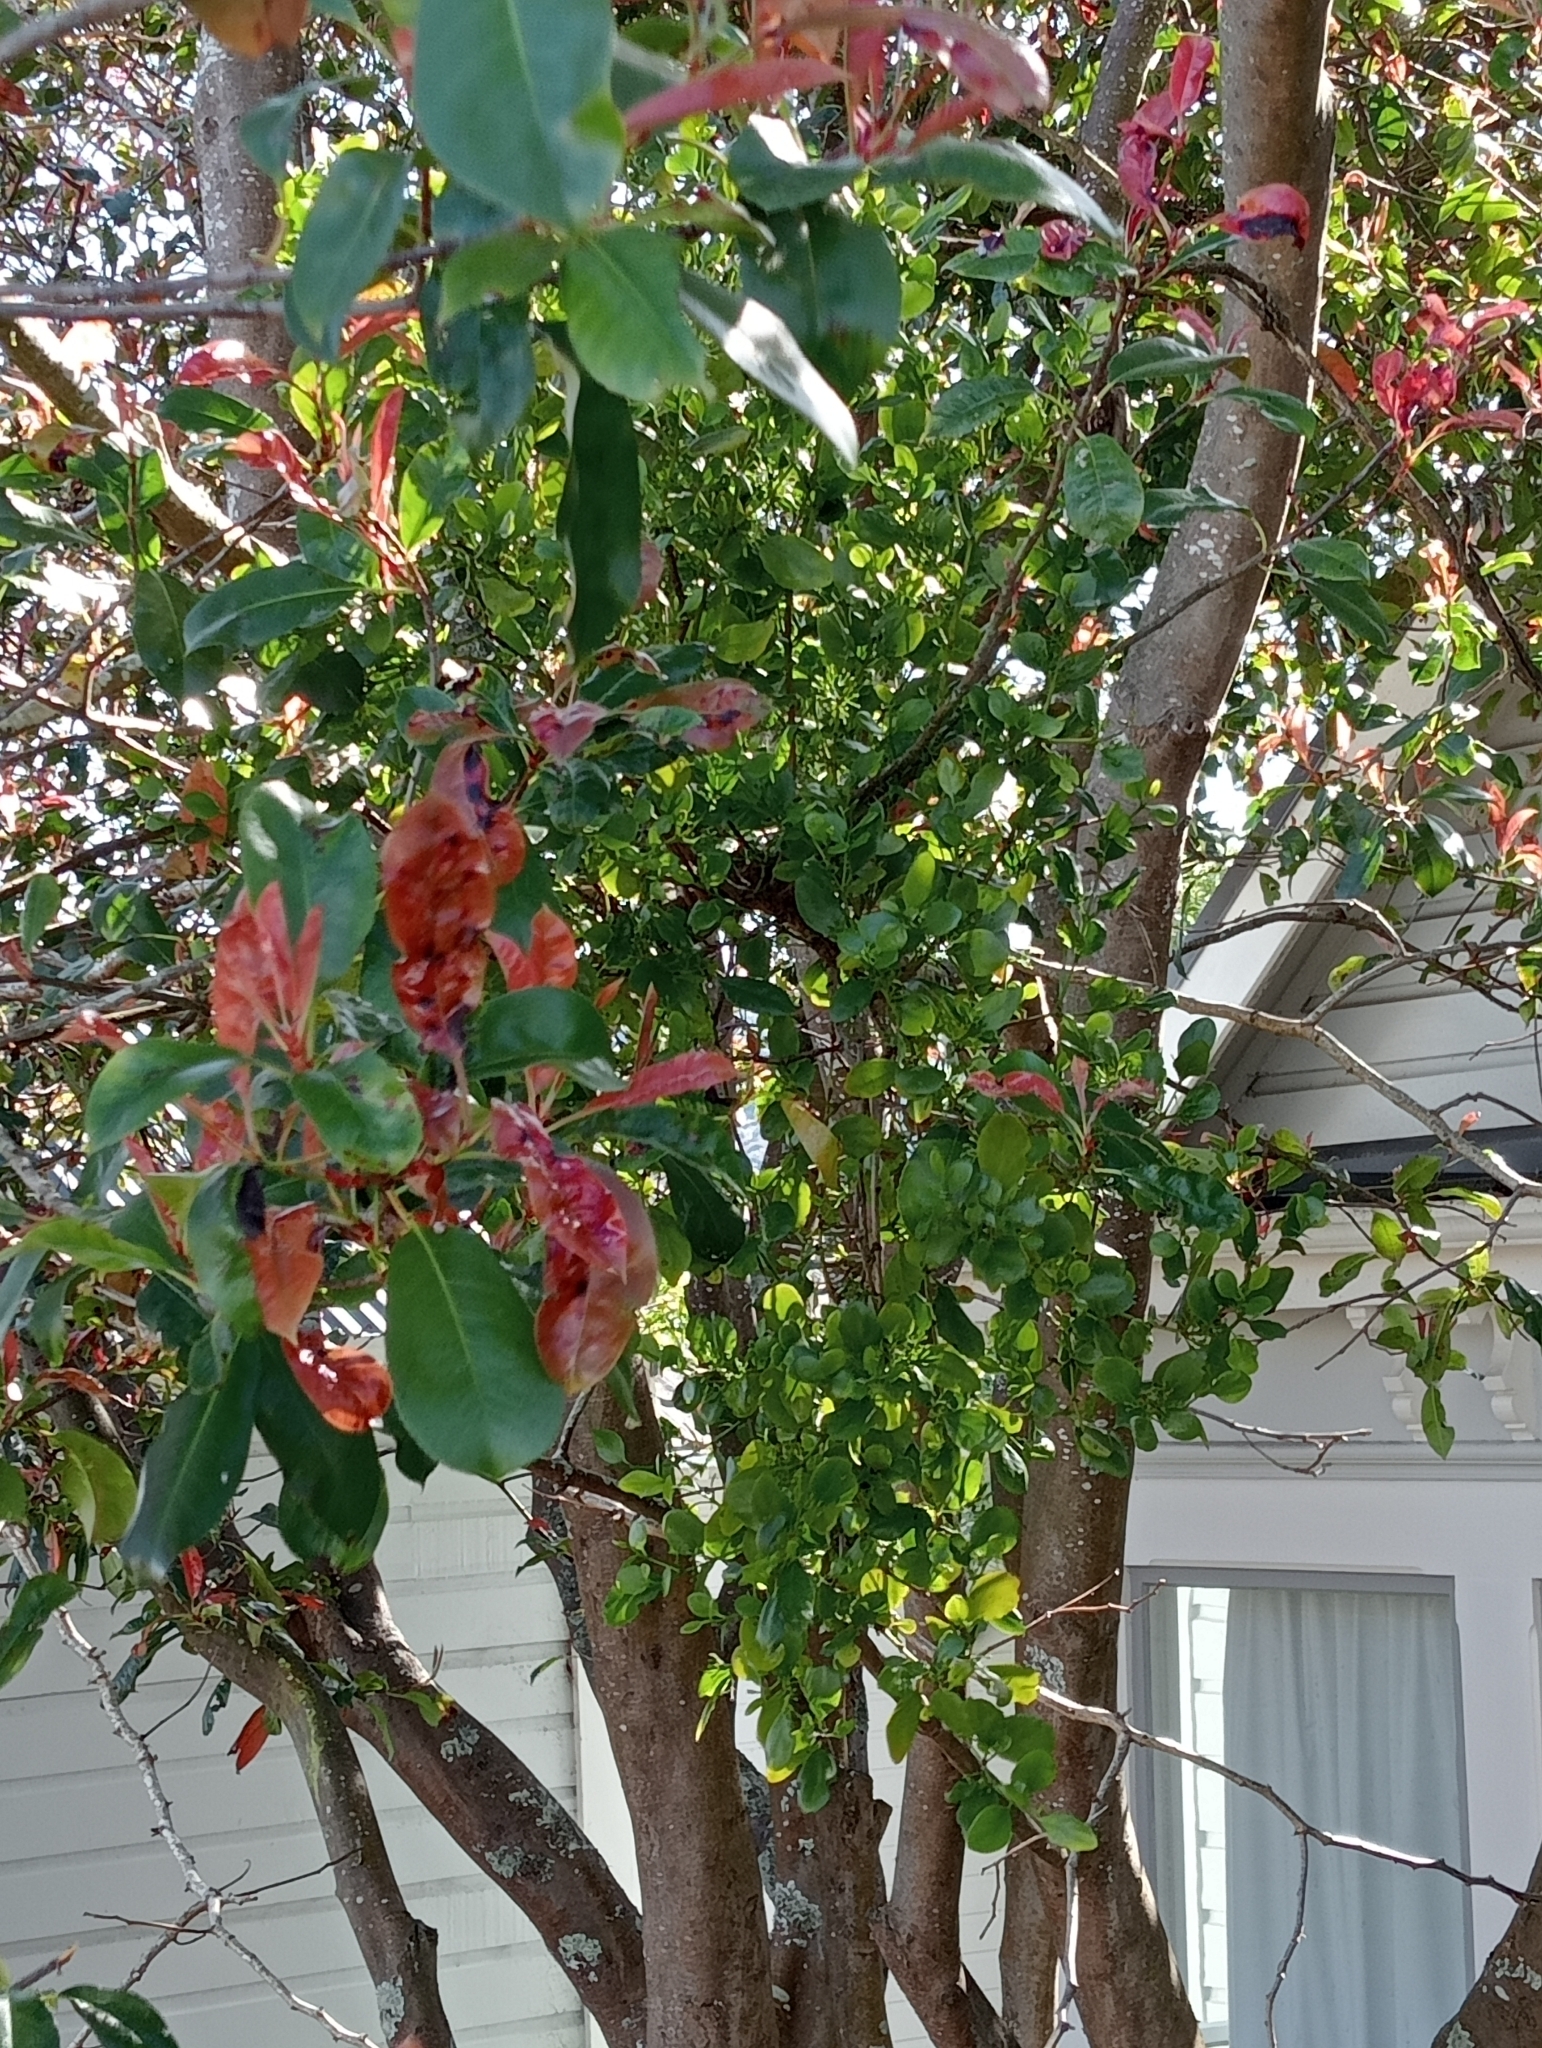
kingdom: Plantae
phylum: Tracheophyta
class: Magnoliopsida
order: Santalales
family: Loranthaceae
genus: Ileostylus
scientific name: Ileostylus micranthus
